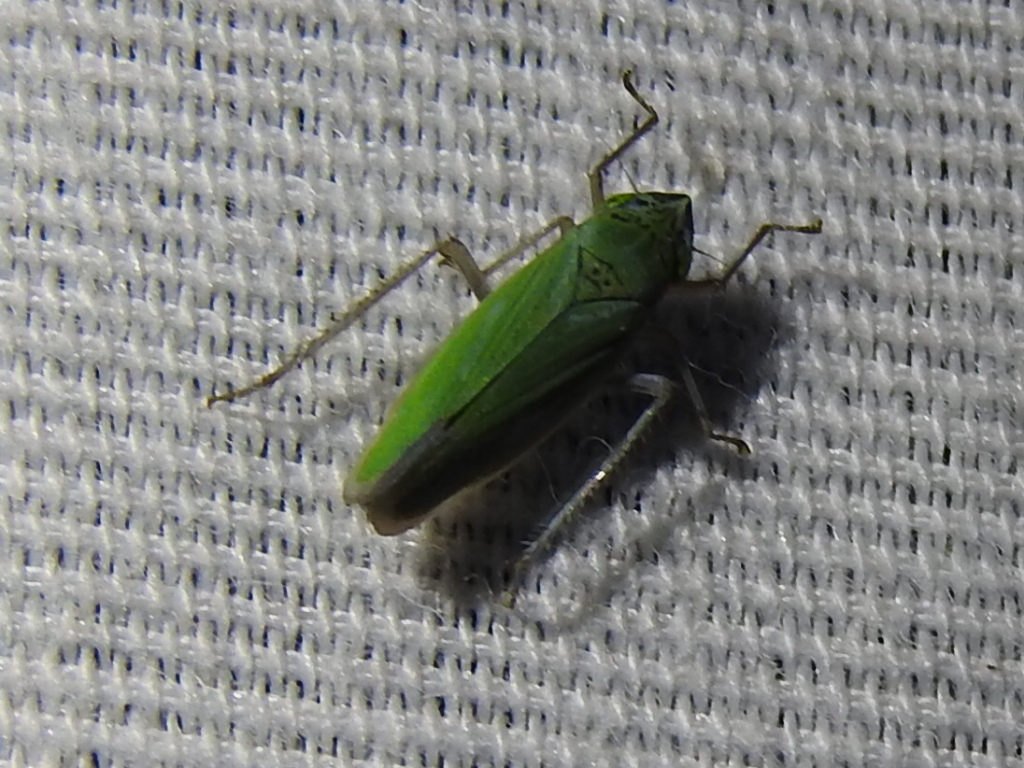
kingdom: Animalia
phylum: Arthropoda
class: Insecta
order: Hemiptera
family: Cicadellidae
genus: Draeculacephala
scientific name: Draeculacephala inscripta
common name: Leafhopper
